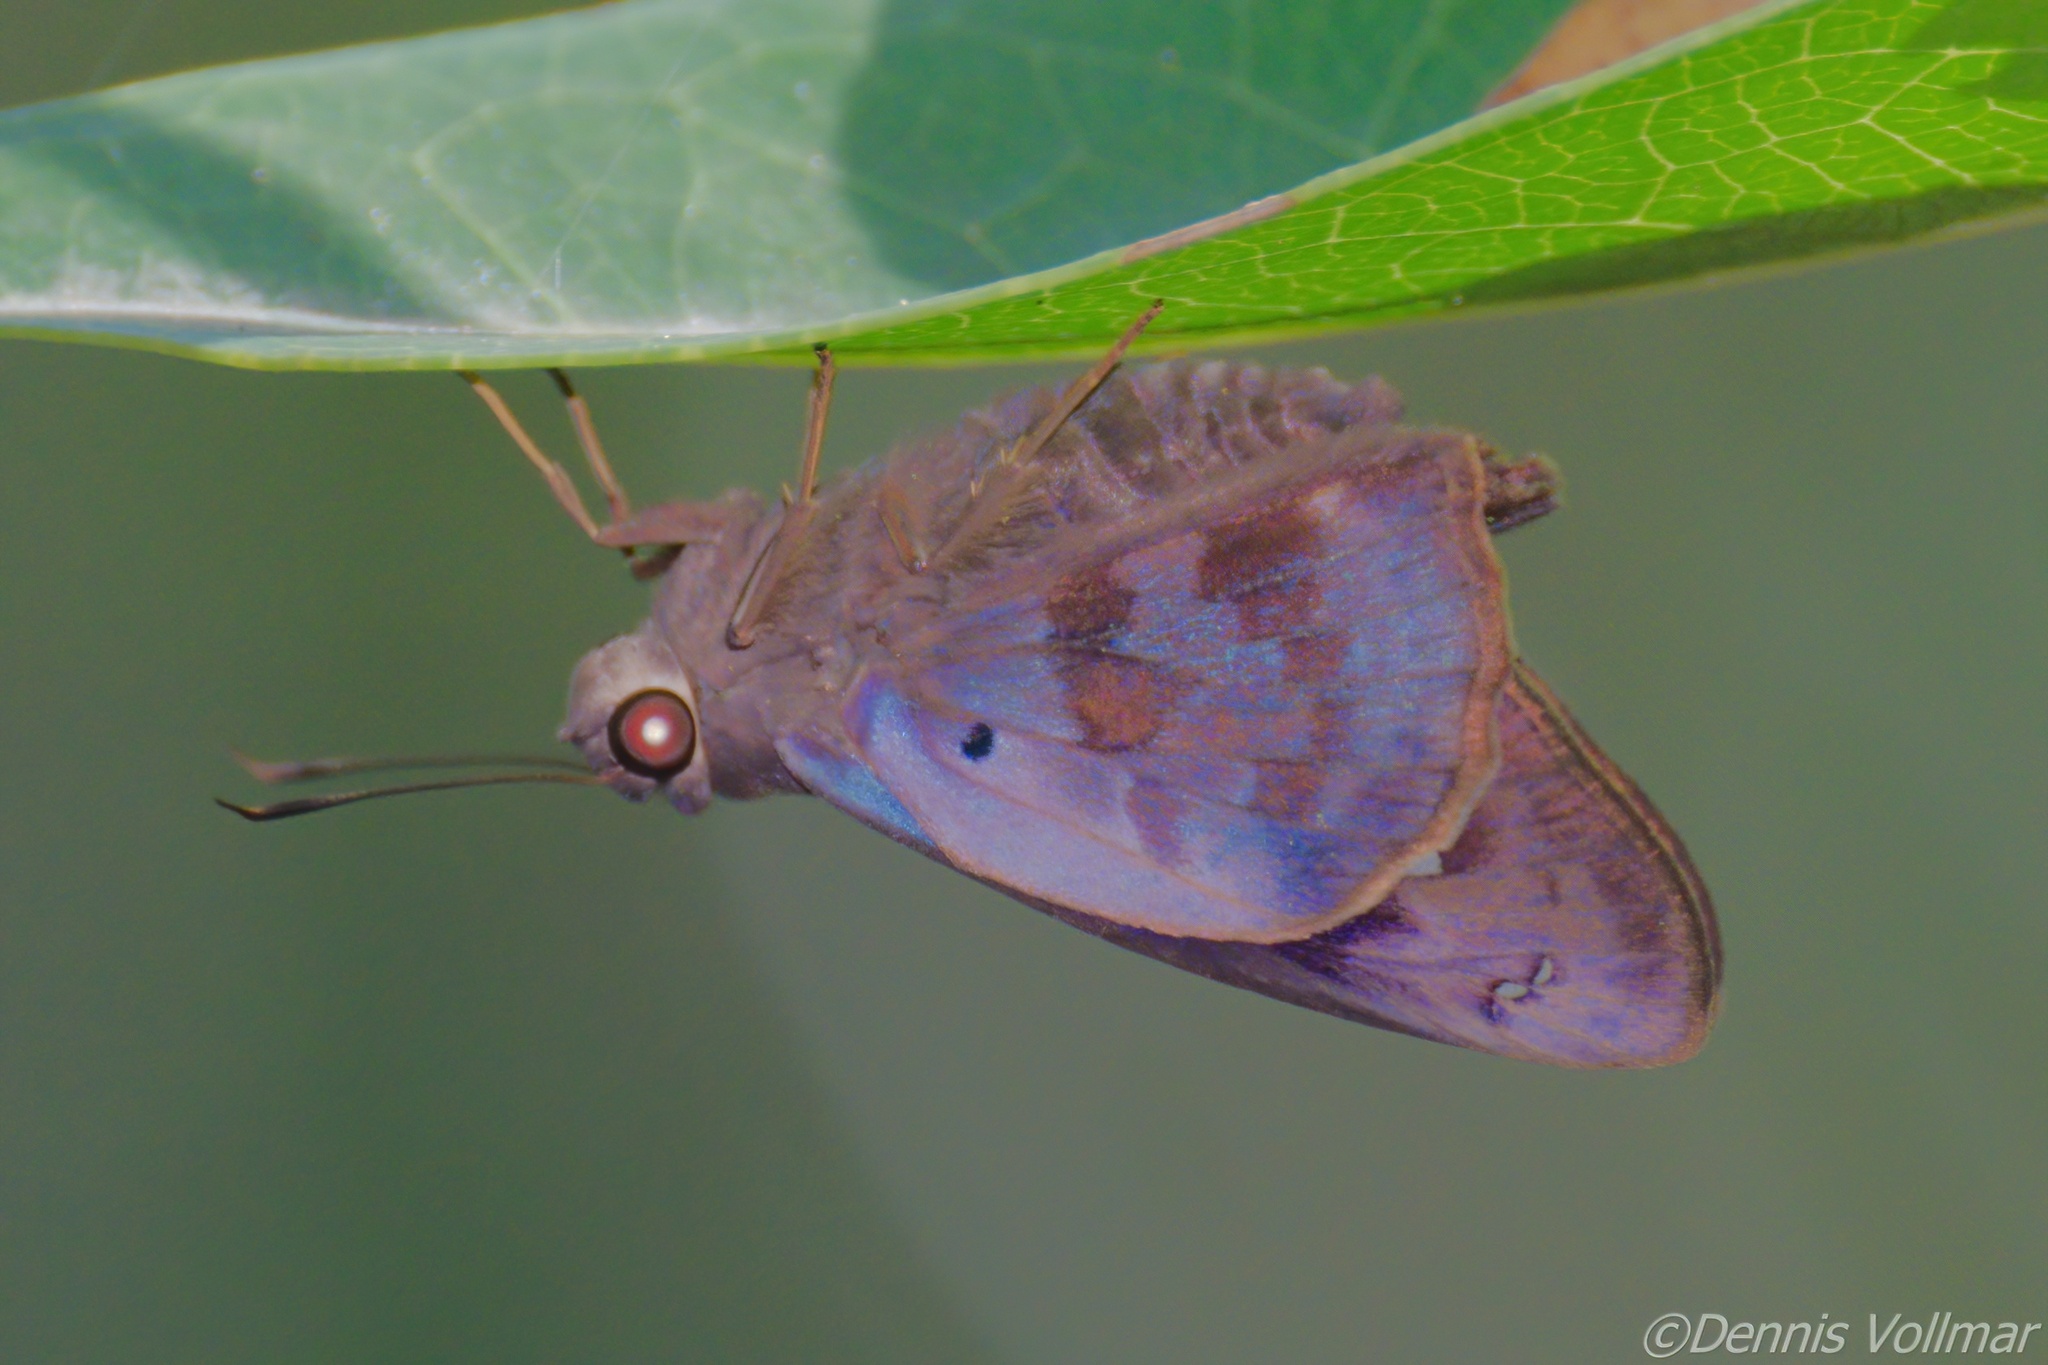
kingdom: Animalia
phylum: Arthropoda
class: Insecta
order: Lepidoptera
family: Hesperiidae
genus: Polygonus
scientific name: Polygonus leo
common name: Hammoch skipper
